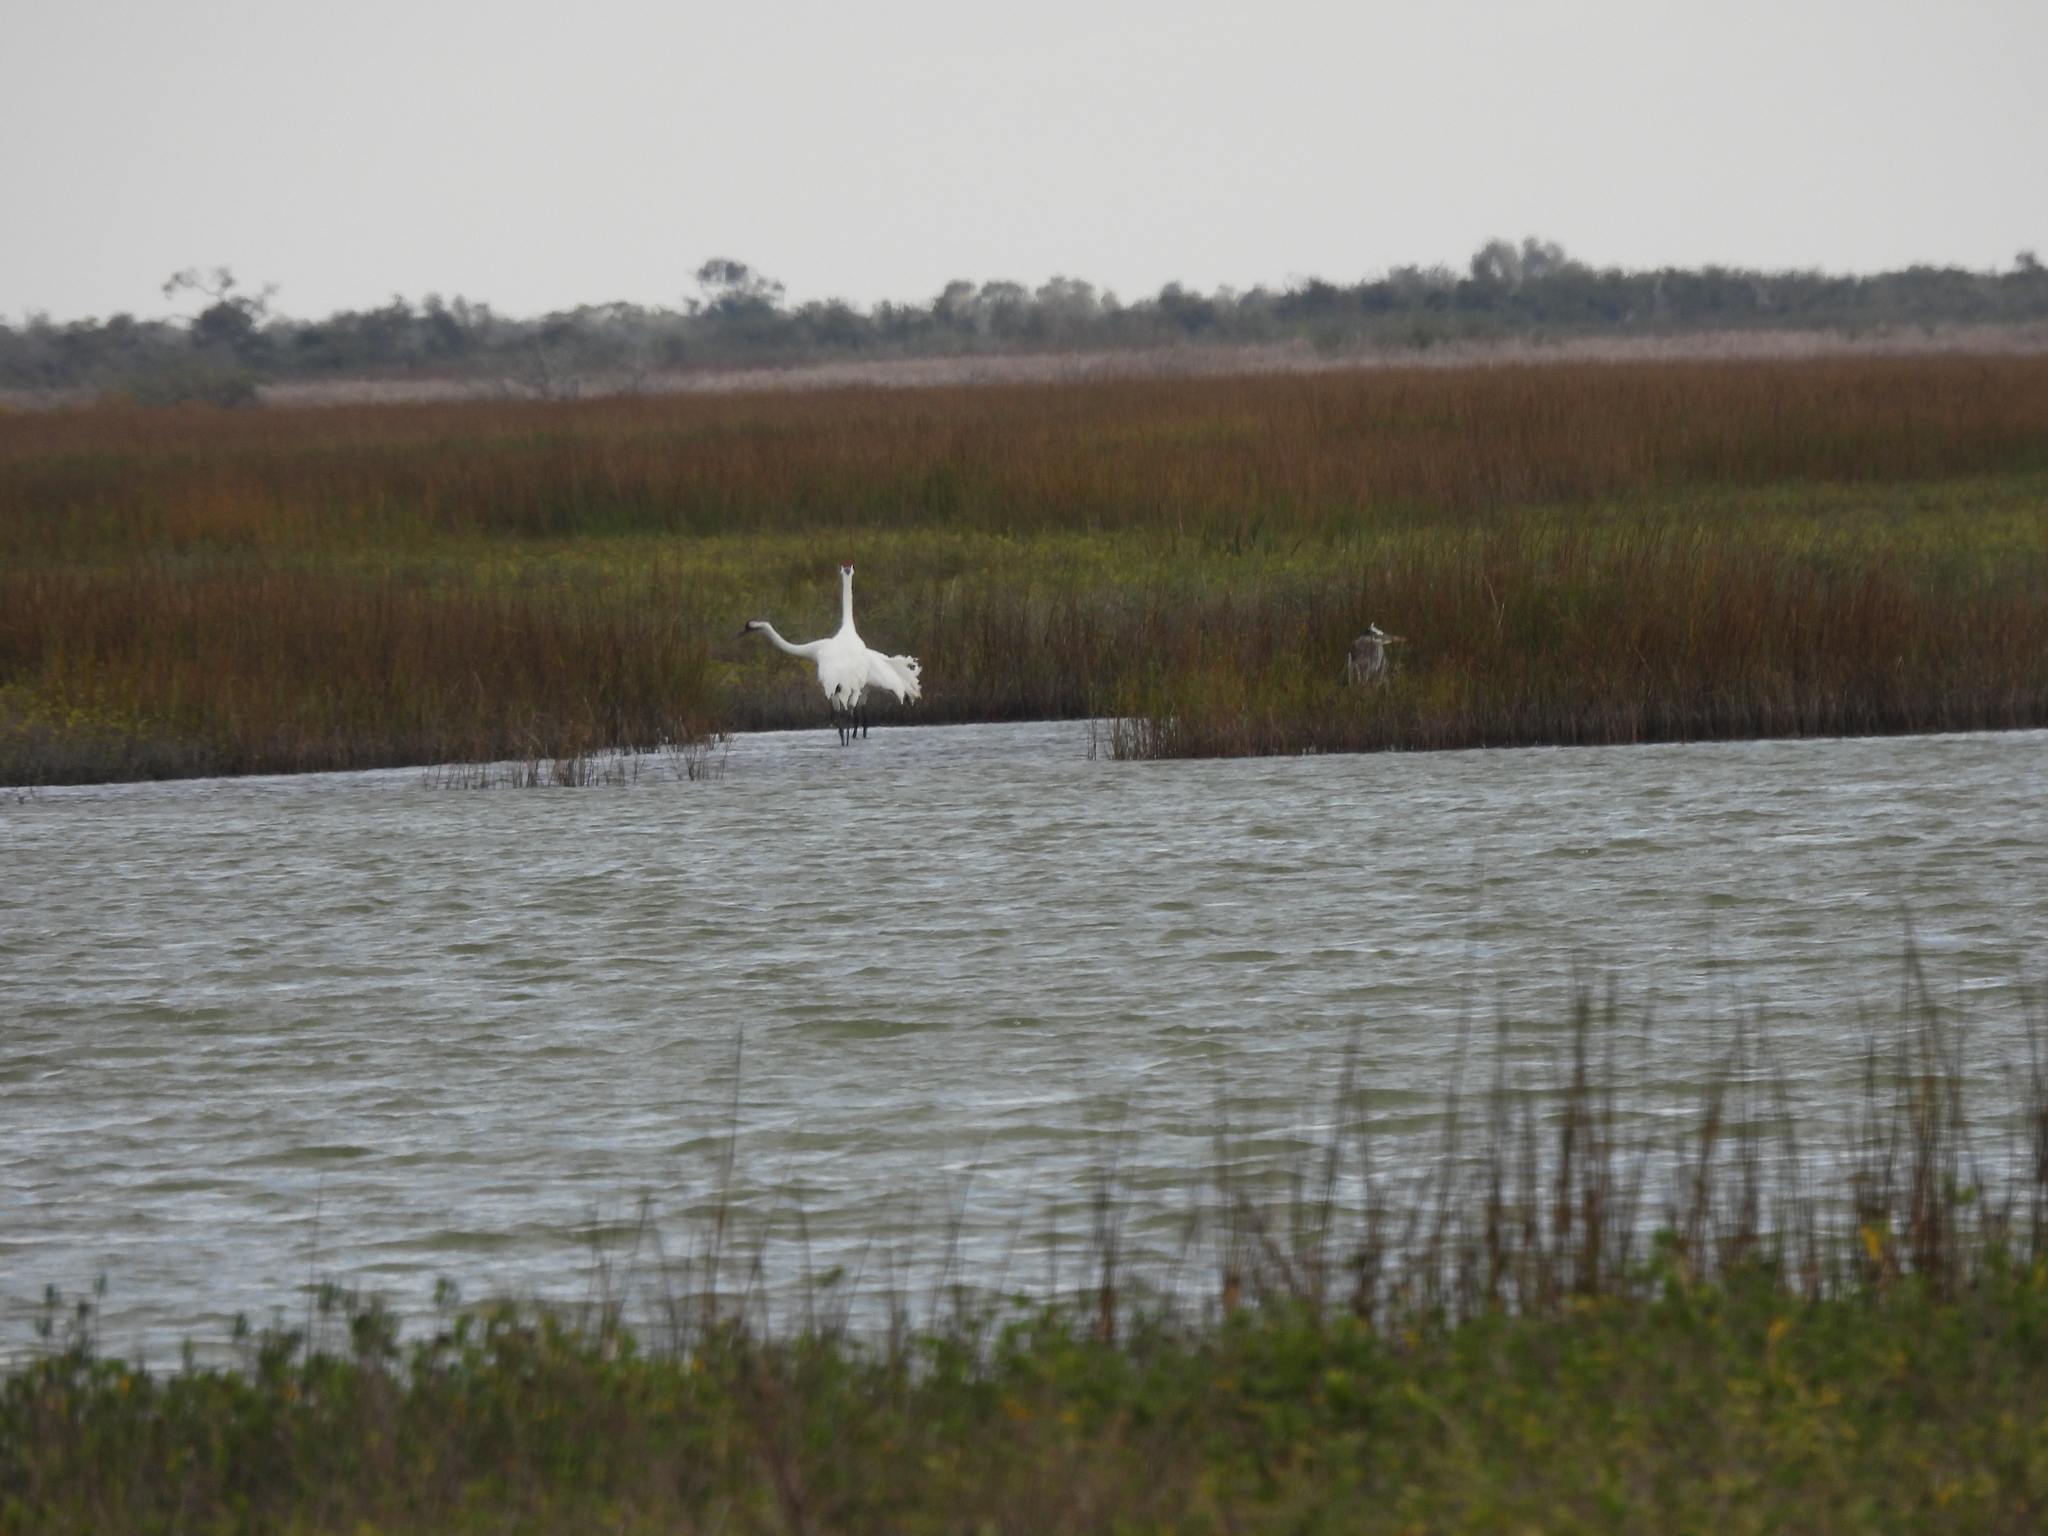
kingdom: Animalia
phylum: Chordata
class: Aves
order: Gruiformes
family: Gruidae
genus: Grus
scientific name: Grus americana
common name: Whooping crane
